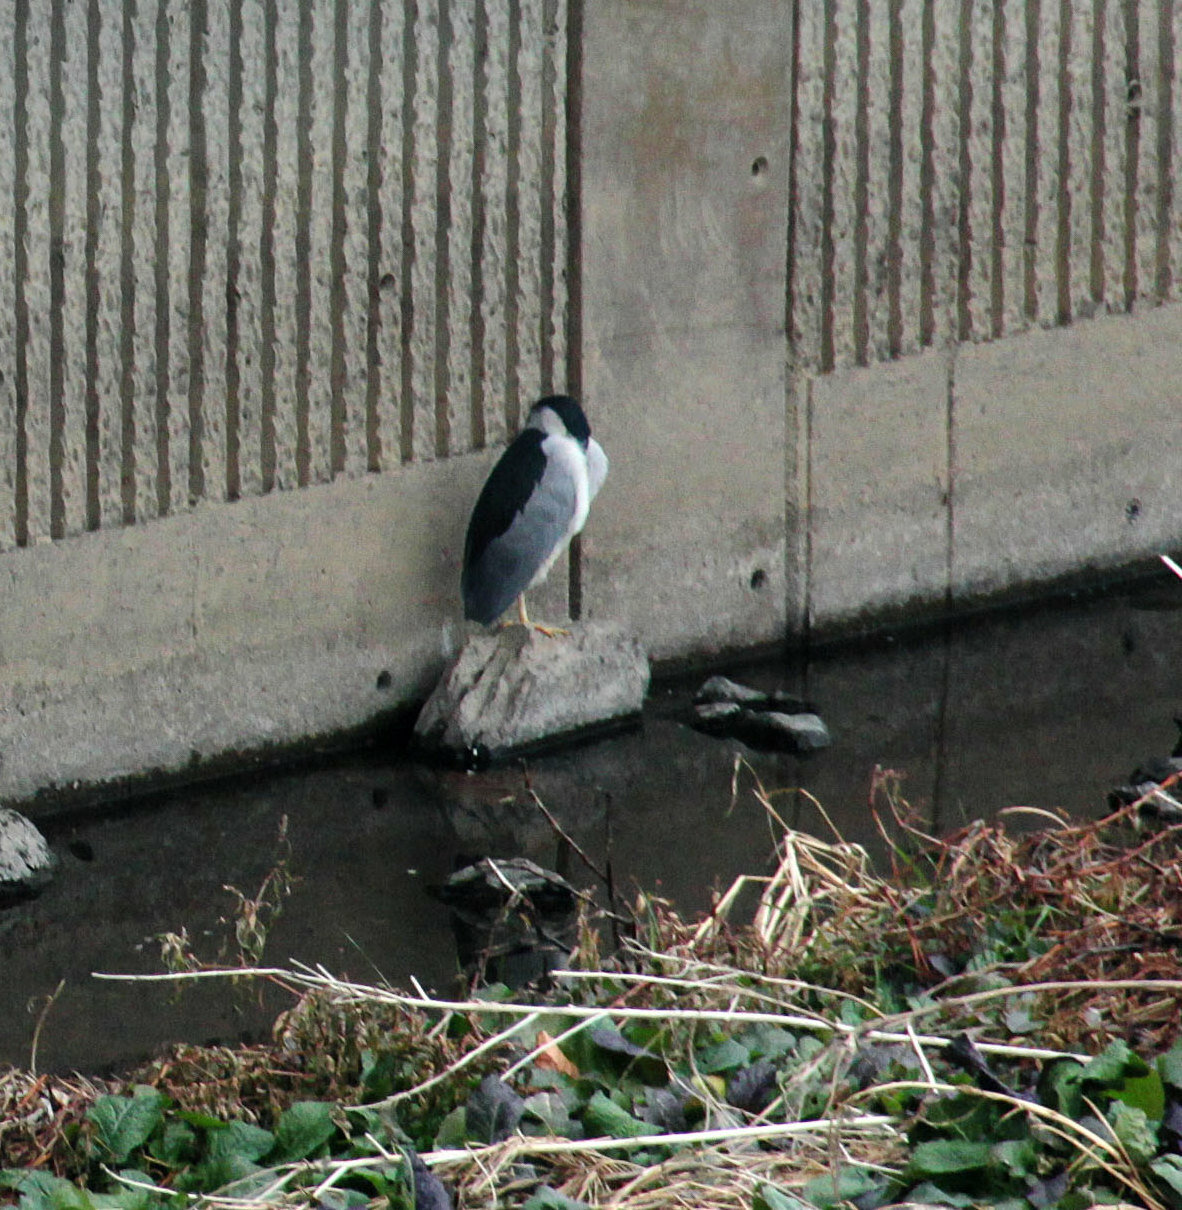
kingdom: Animalia
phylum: Chordata
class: Aves
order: Pelecaniformes
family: Ardeidae
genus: Nycticorax
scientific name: Nycticorax nycticorax
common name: Black-crowned night heron
